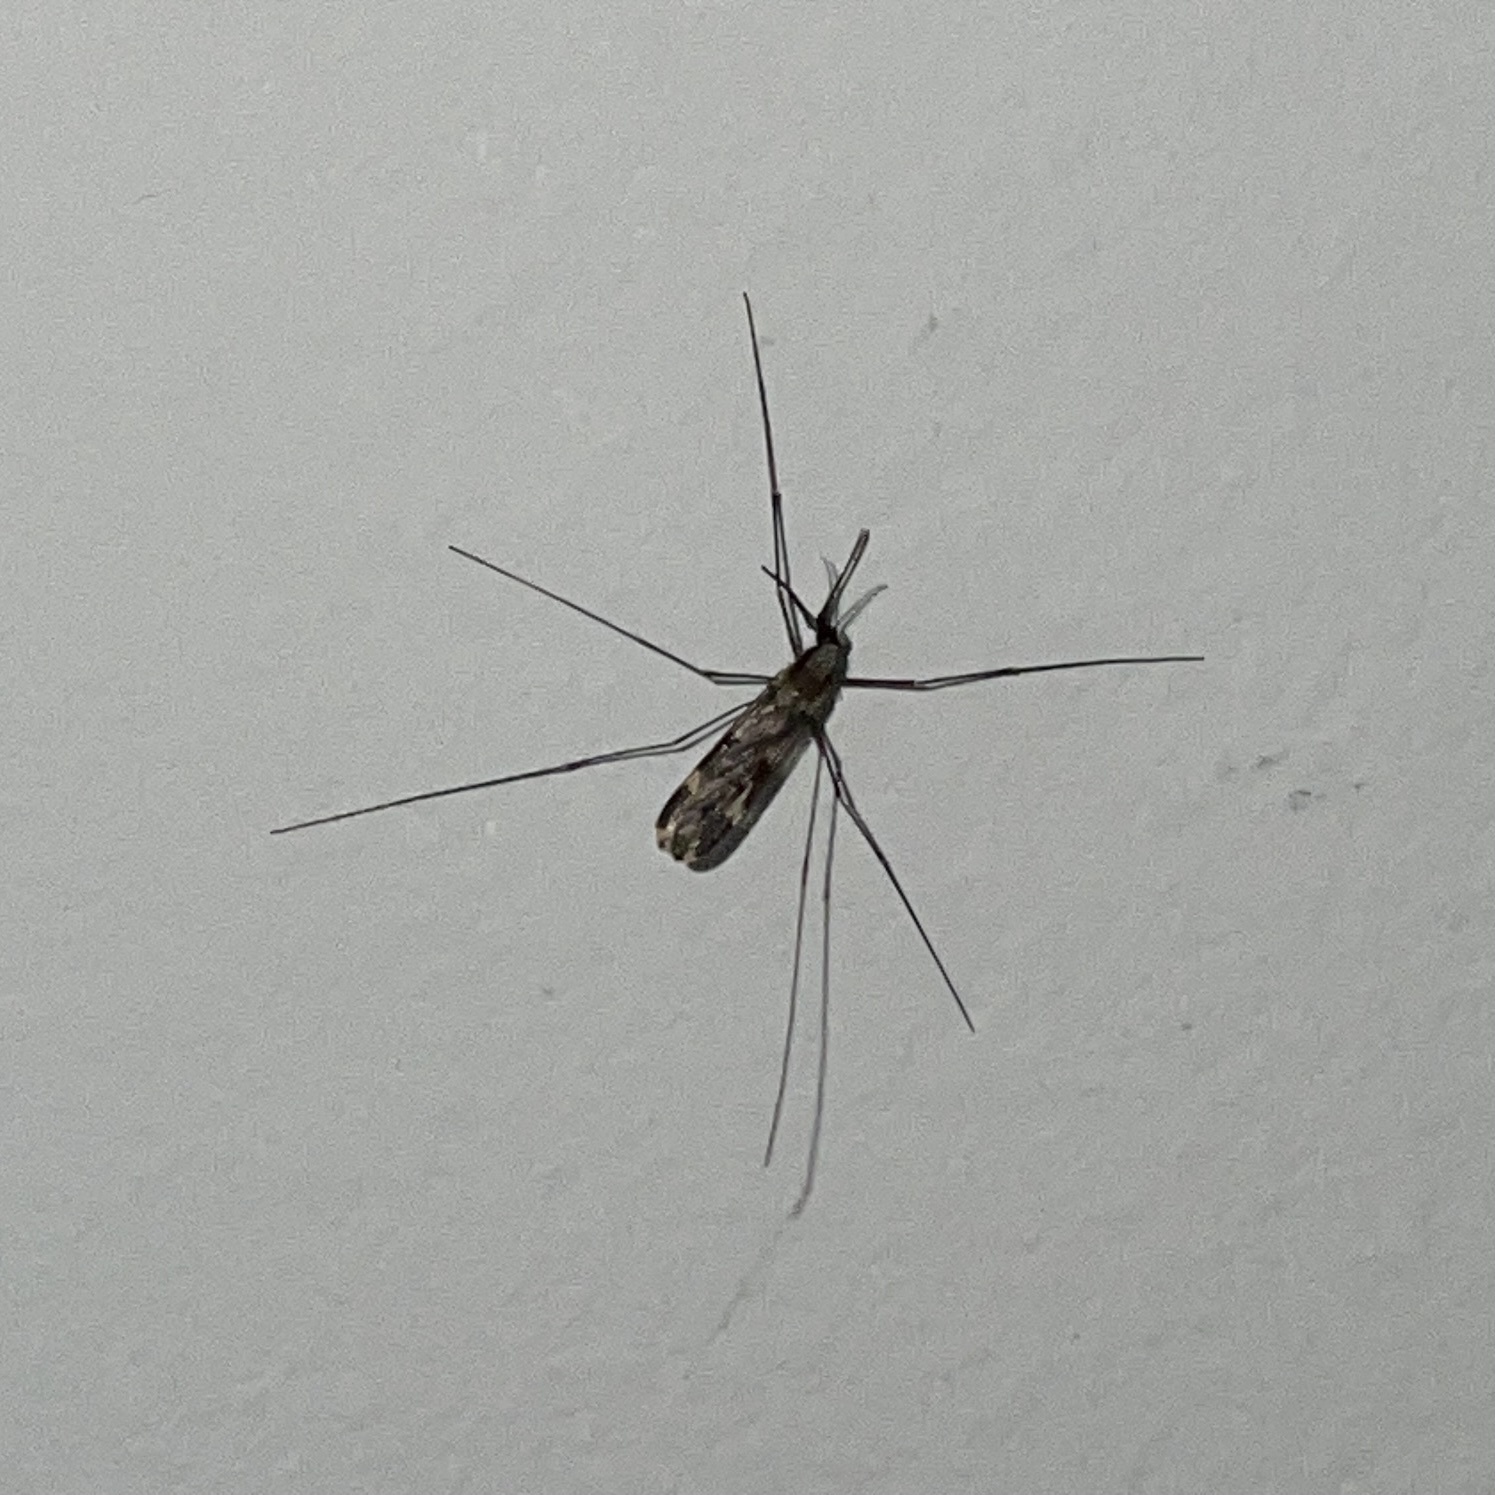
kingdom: Animalia
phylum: Arthropoda
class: Insecta
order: Diptera
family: Culicidae
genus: Anopheles
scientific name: Anopheles punctipennis
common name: Woodland malaria mosquito
